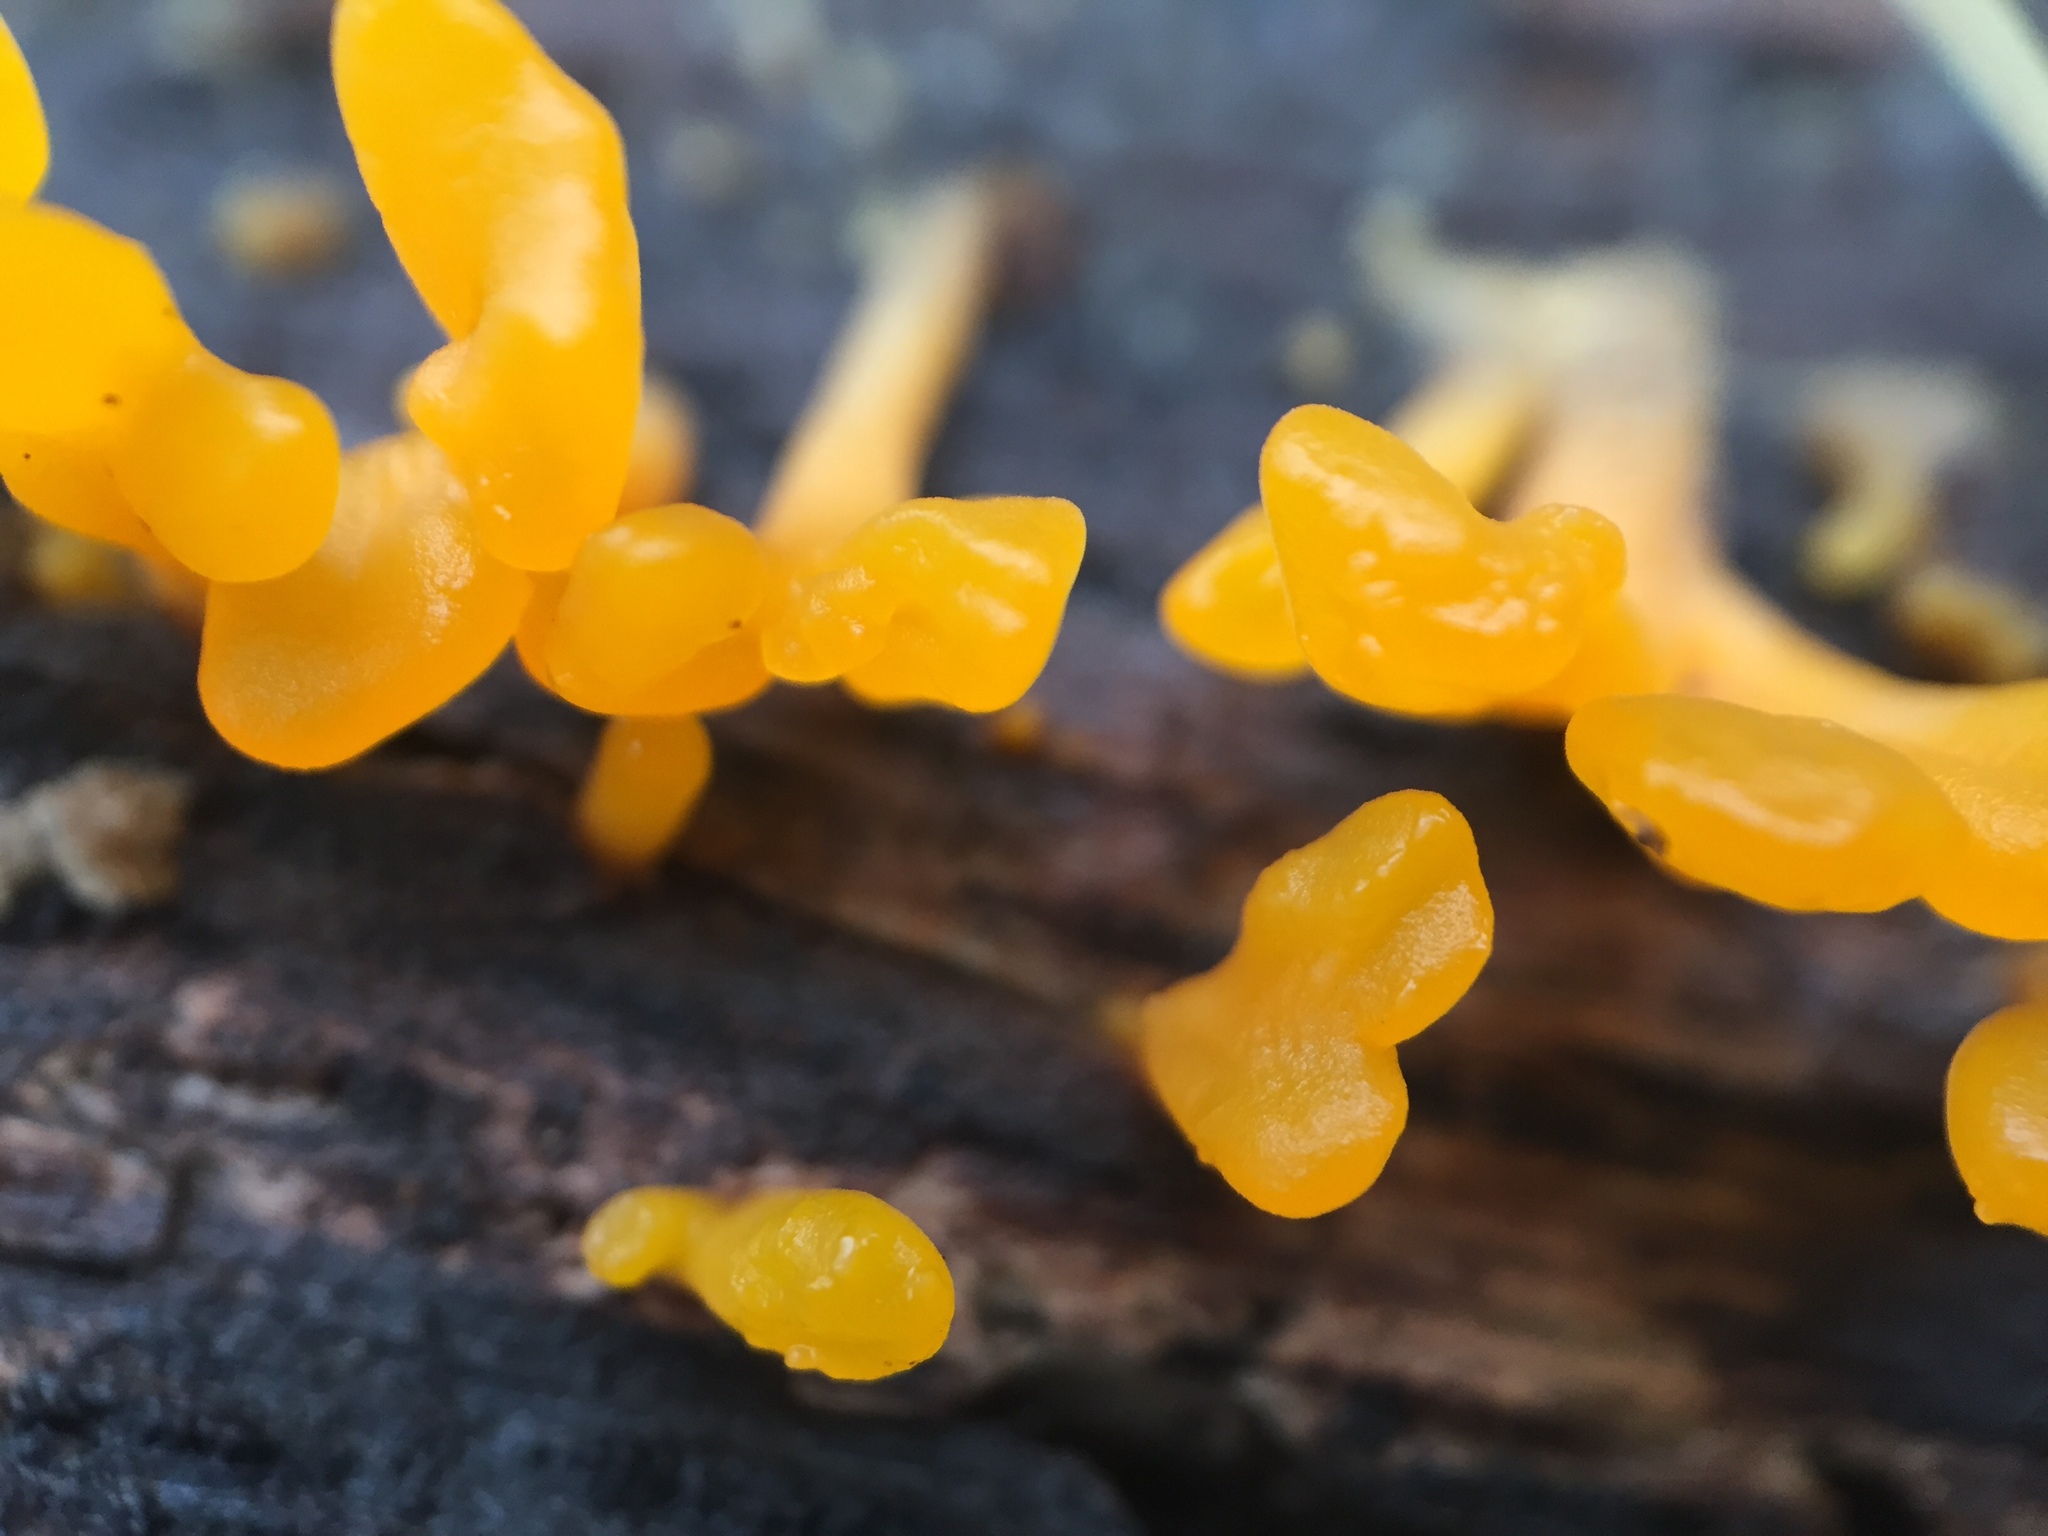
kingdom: Fungi
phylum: Basidiomycota
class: Dacrymycetes
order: Dacrymycetales
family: Dacrymycetaceae
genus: Dacrymyces
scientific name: Dacrymyces spathularius
